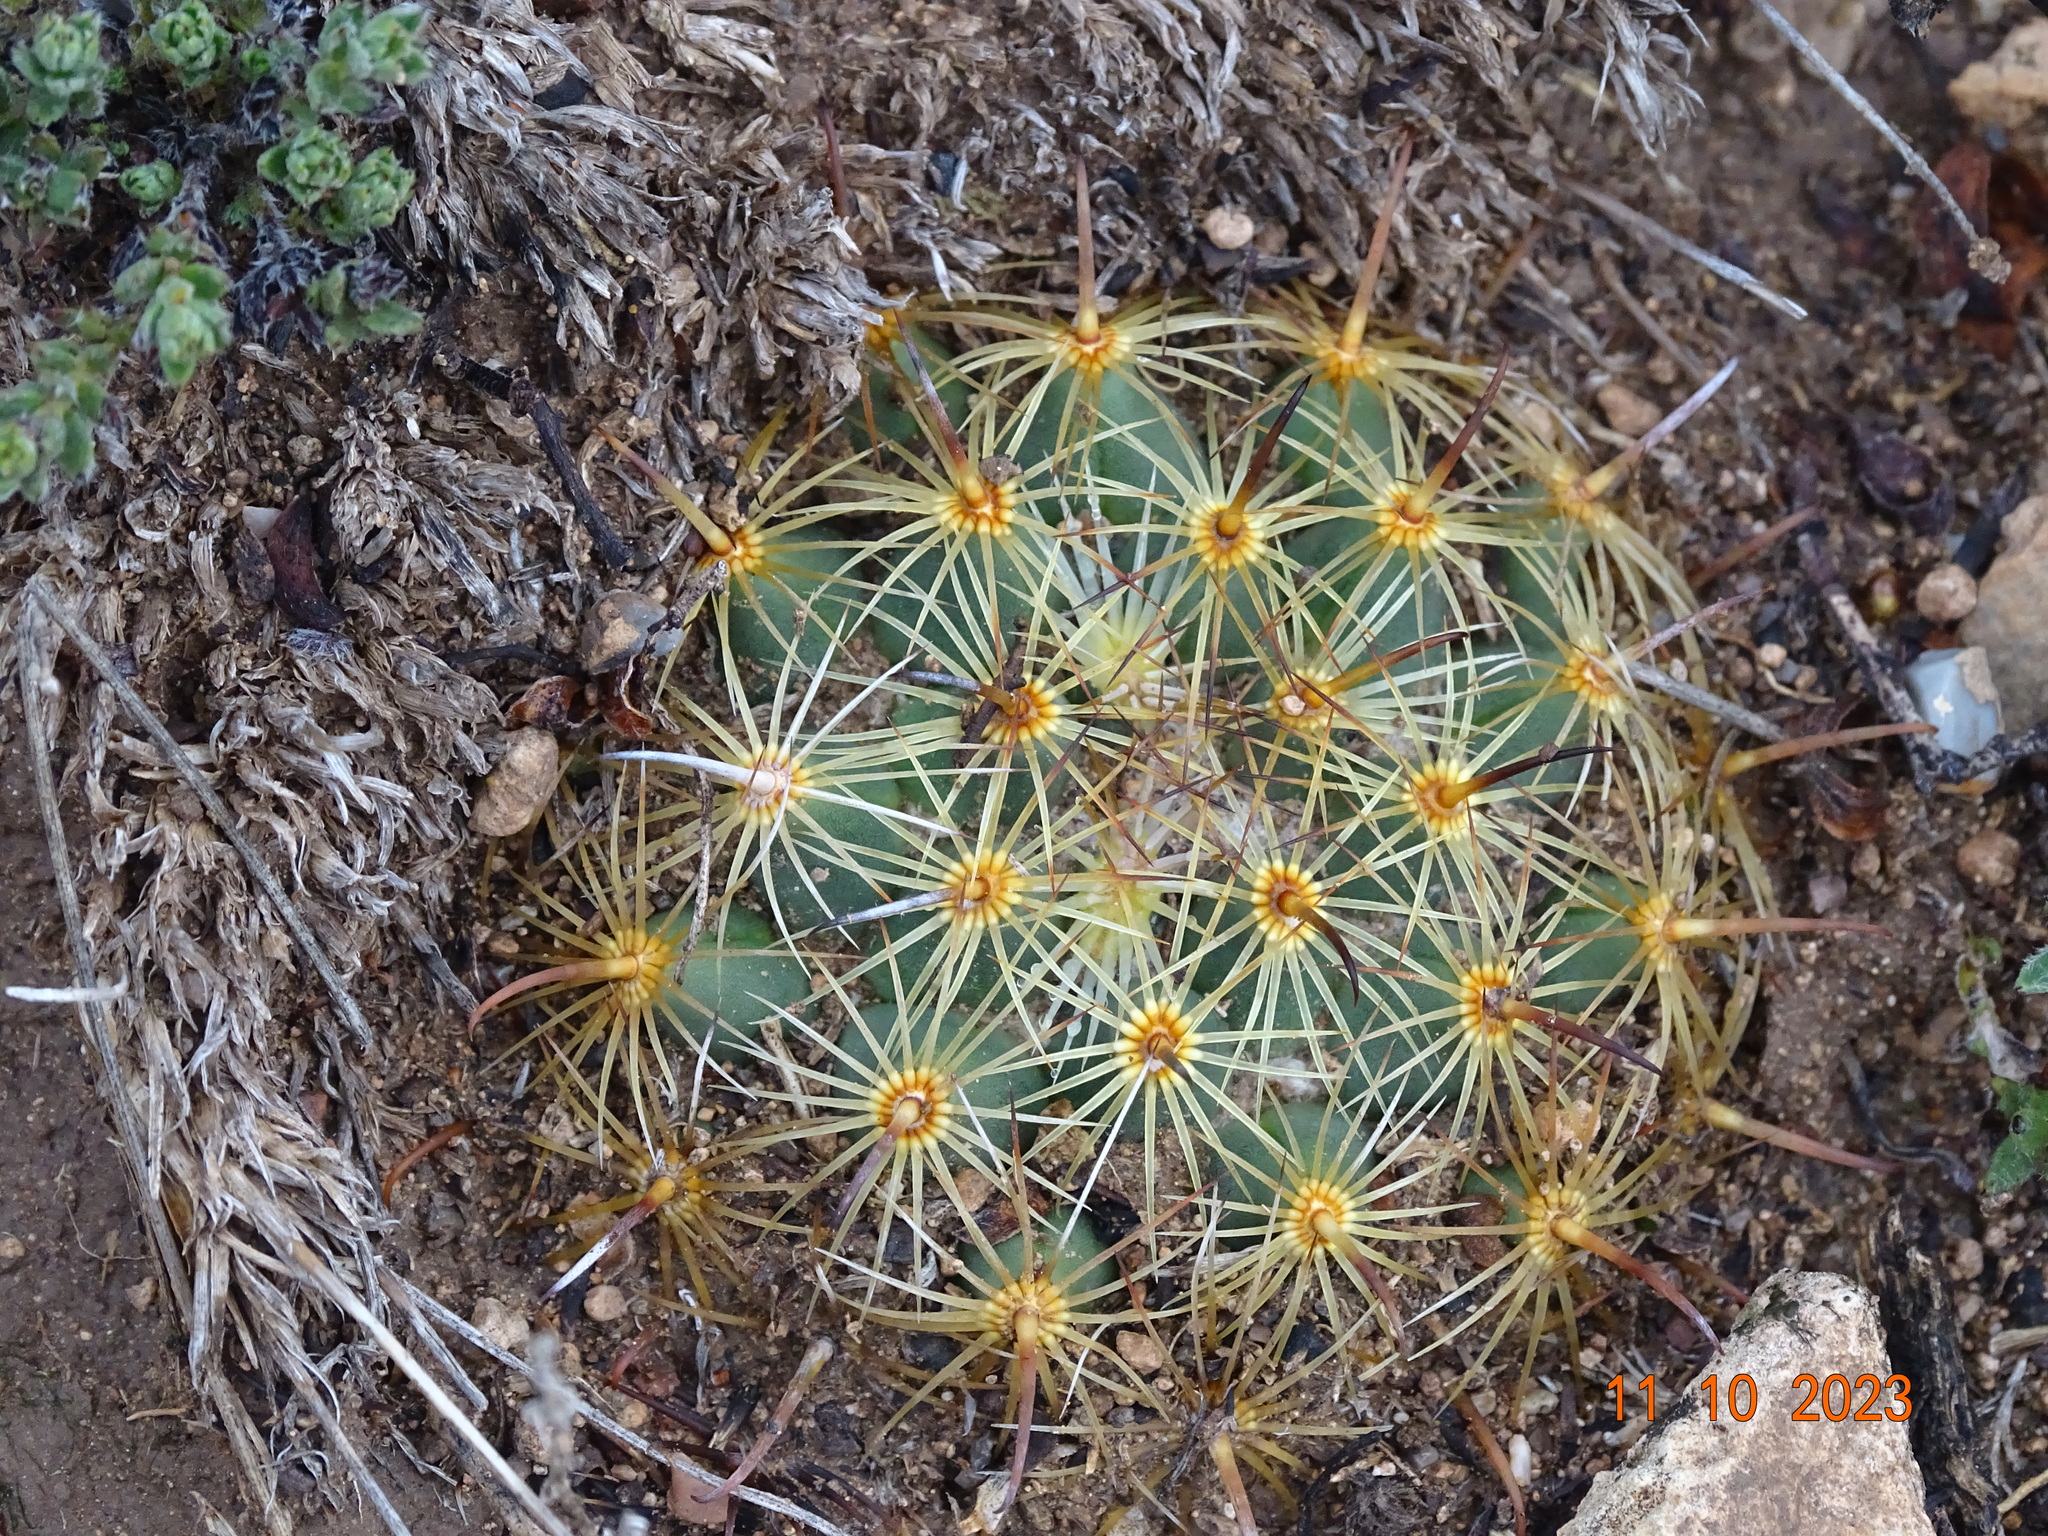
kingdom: Plantae
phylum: Tracheophyta
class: Magnoliopsida
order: Caryophyllales
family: Cactaceae
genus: Coryphantha
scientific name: Coryphantha delicata
